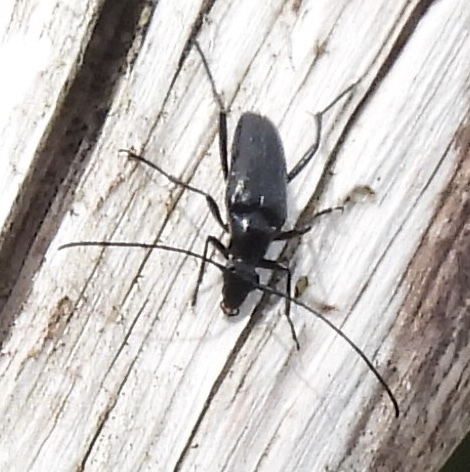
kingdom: Animalia
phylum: Arthropoda
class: Insecta
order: Coleoptera
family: Cerambycidae
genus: Stenurella
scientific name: Stenurella nigra
